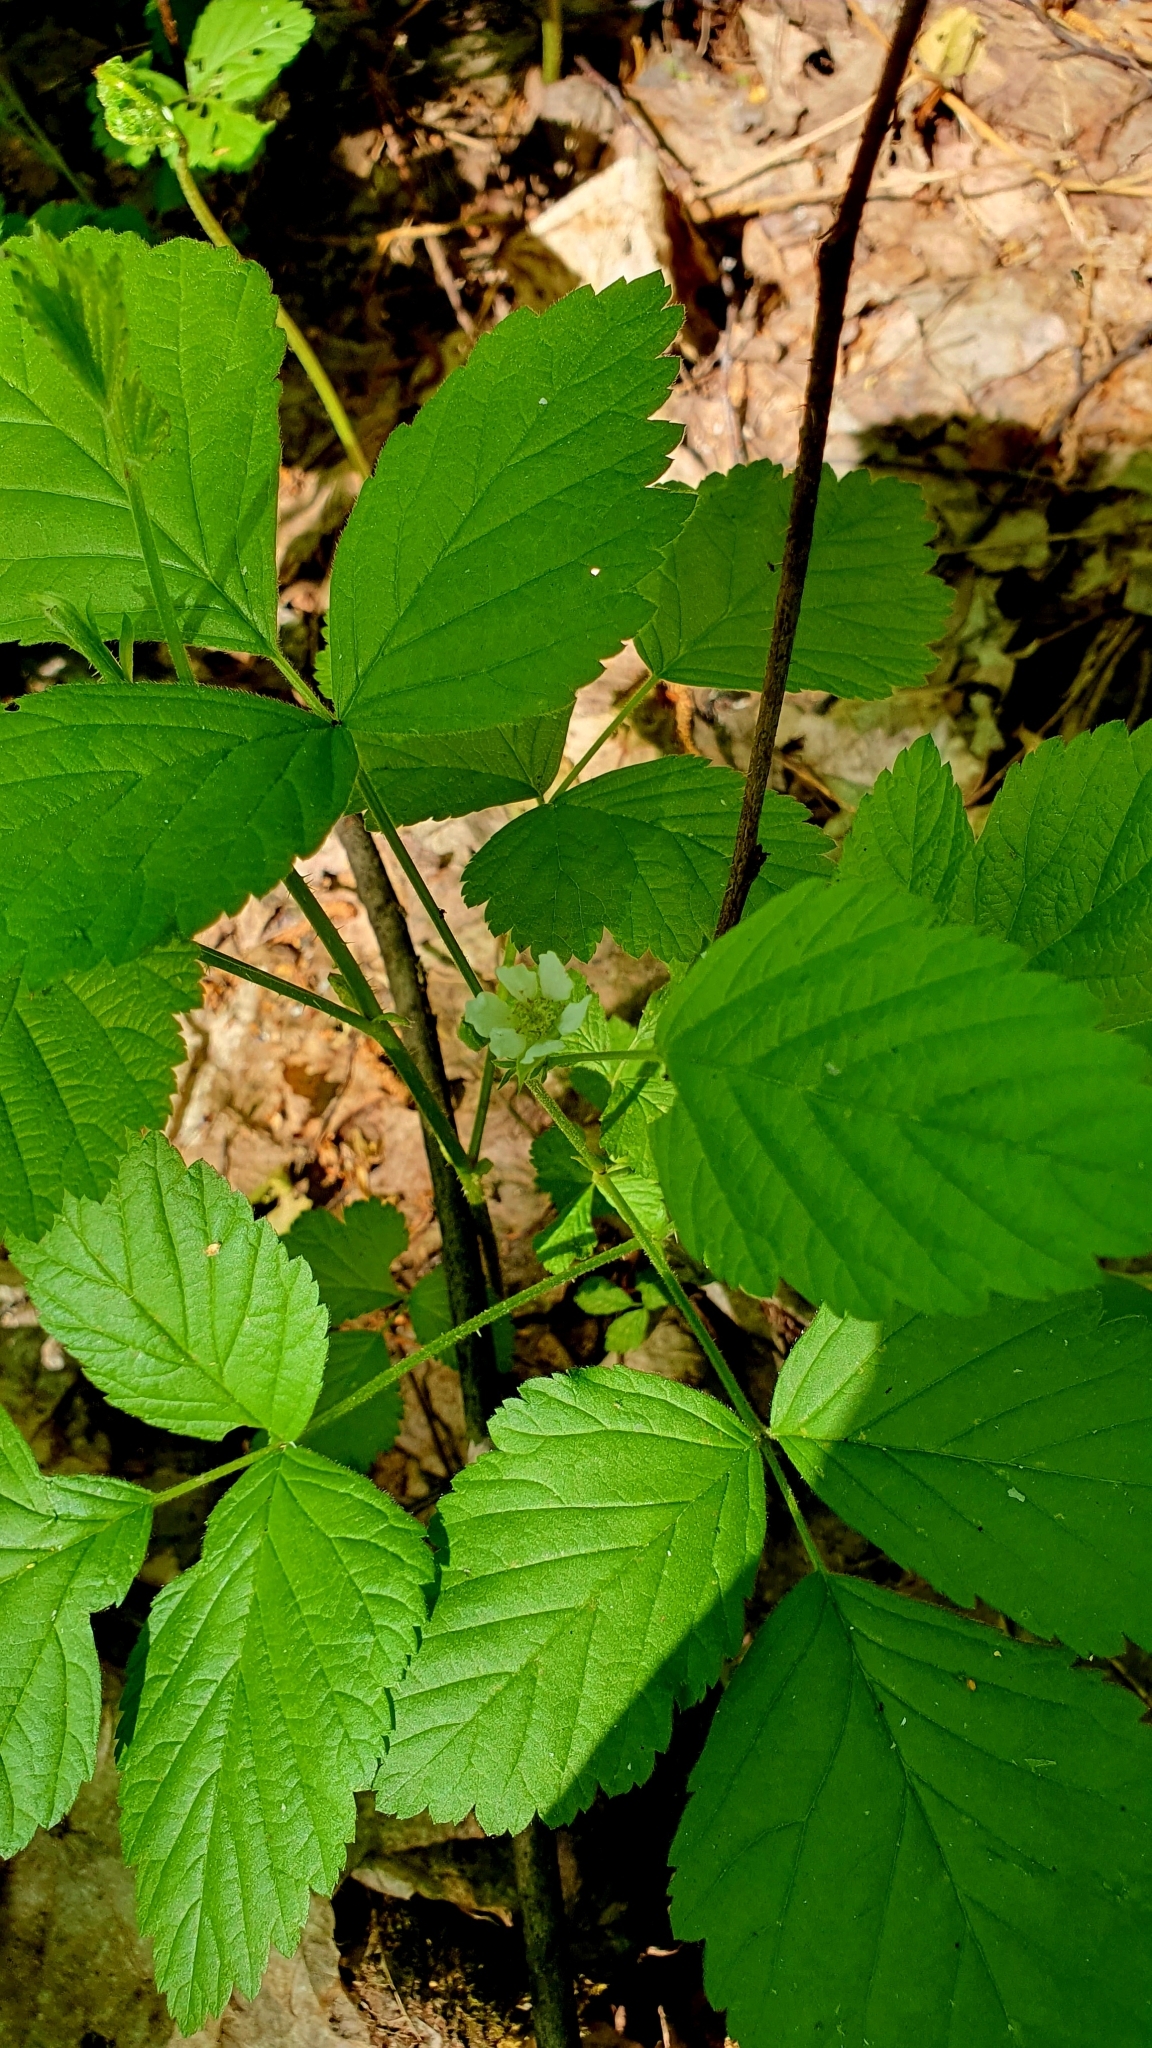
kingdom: Plantae
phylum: Tracheophyta
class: Magnoliopsida
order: Rosales
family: Rosaceae
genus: Rubus
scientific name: Rubus saxatilis
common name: Stone bramble
